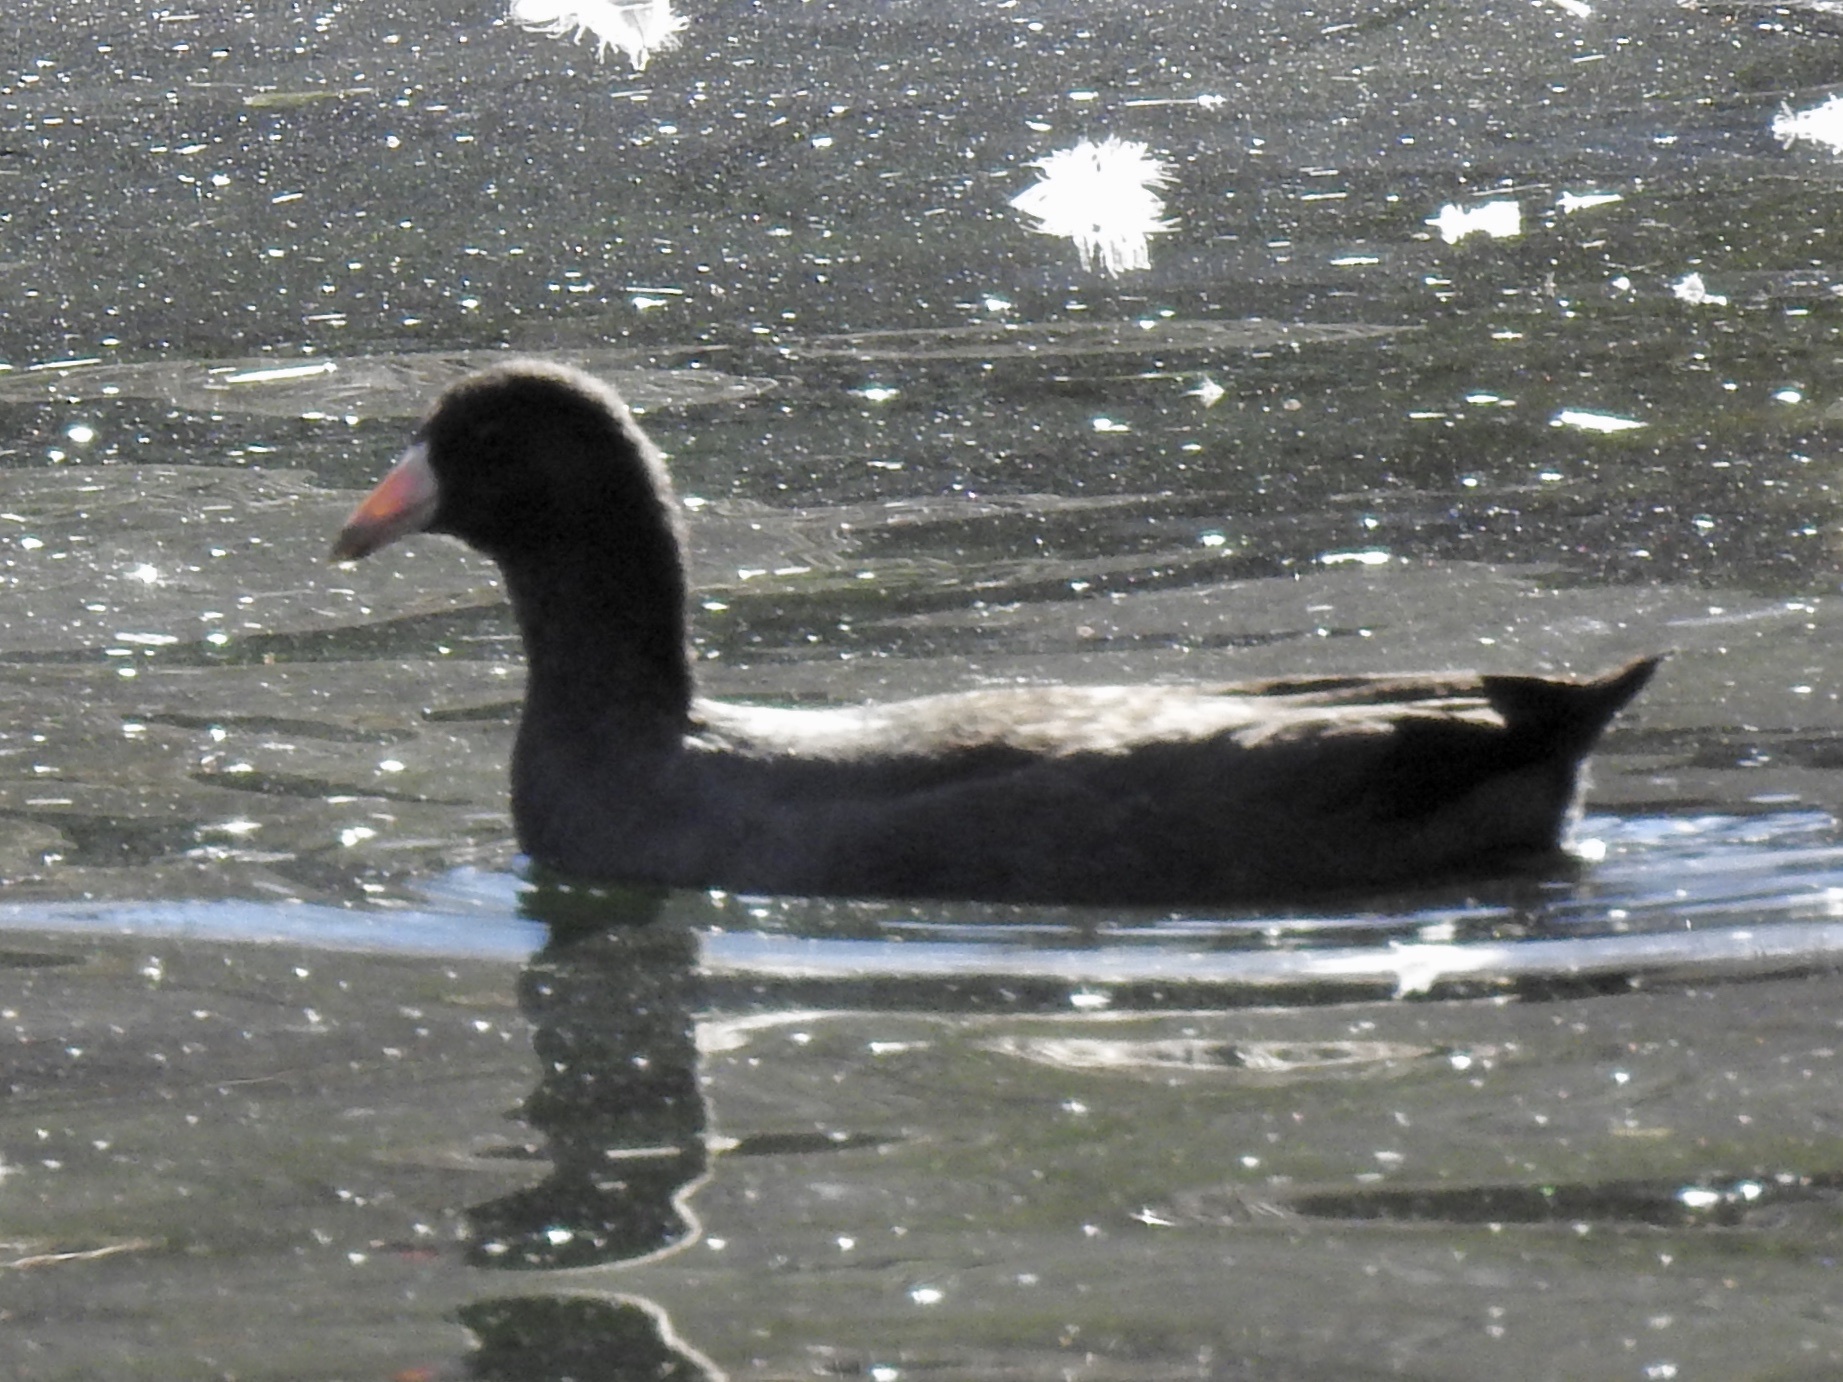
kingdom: Animalia
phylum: Chordata
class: Aves
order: Gruiformes
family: Rallidae
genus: Fulica
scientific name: Fulica americana
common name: American coot
